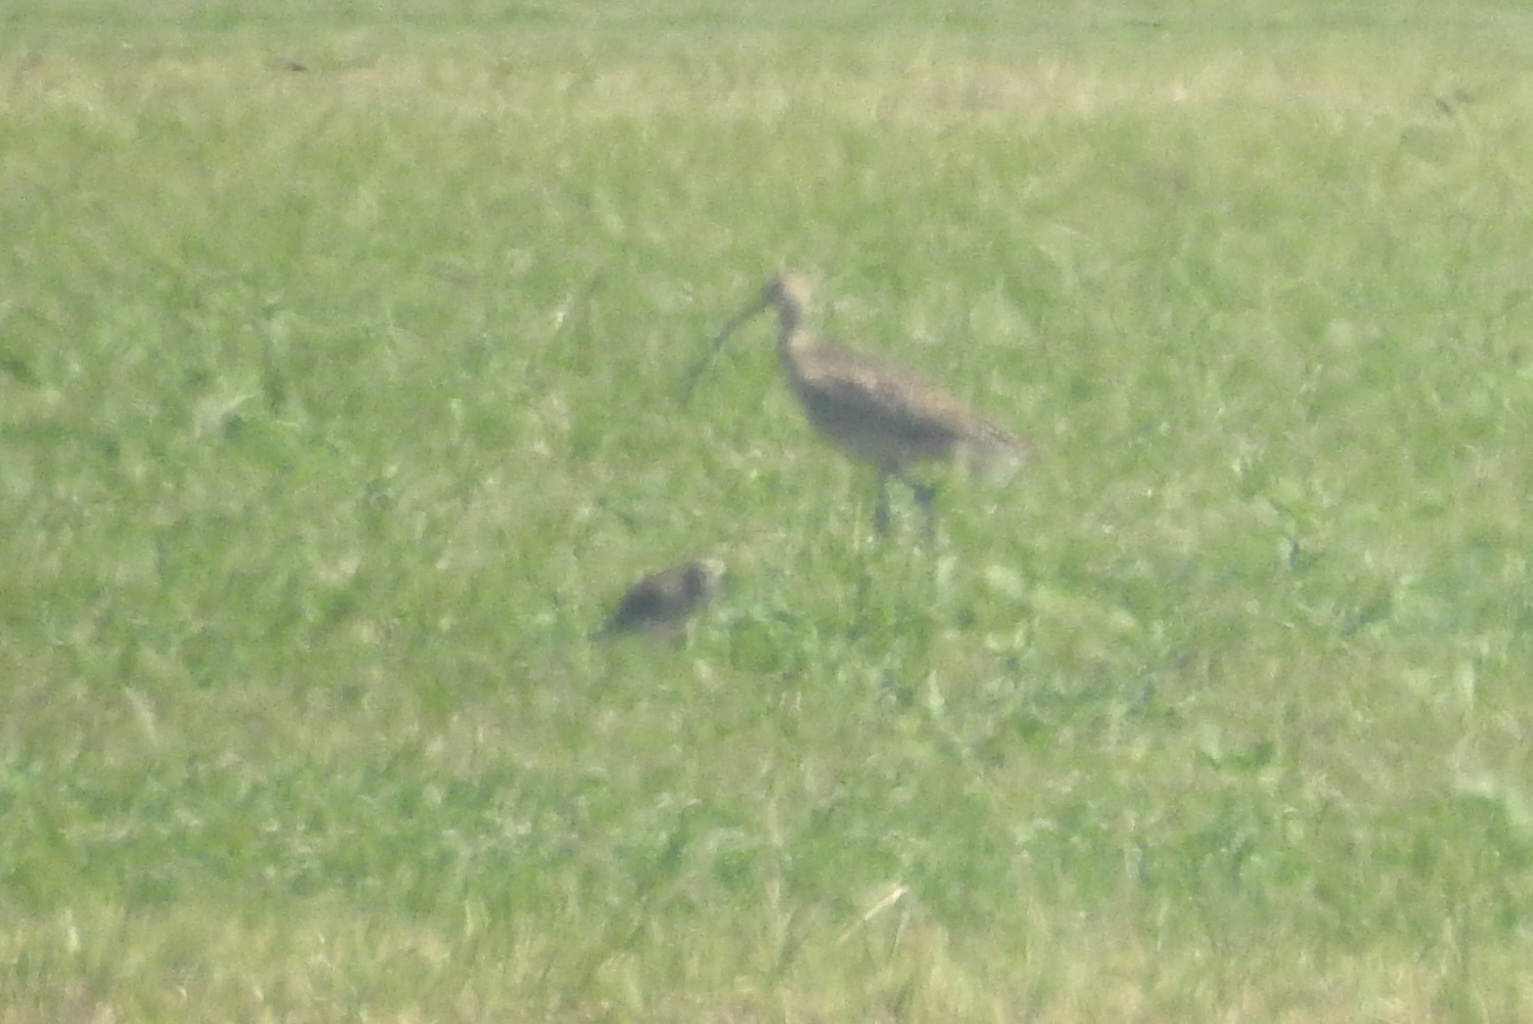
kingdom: Animalia
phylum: Chordata
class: Aves
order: Charadriiformes
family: Scolopacidae
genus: Numenius
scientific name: Numenius americanus
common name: Long-billed curlew
